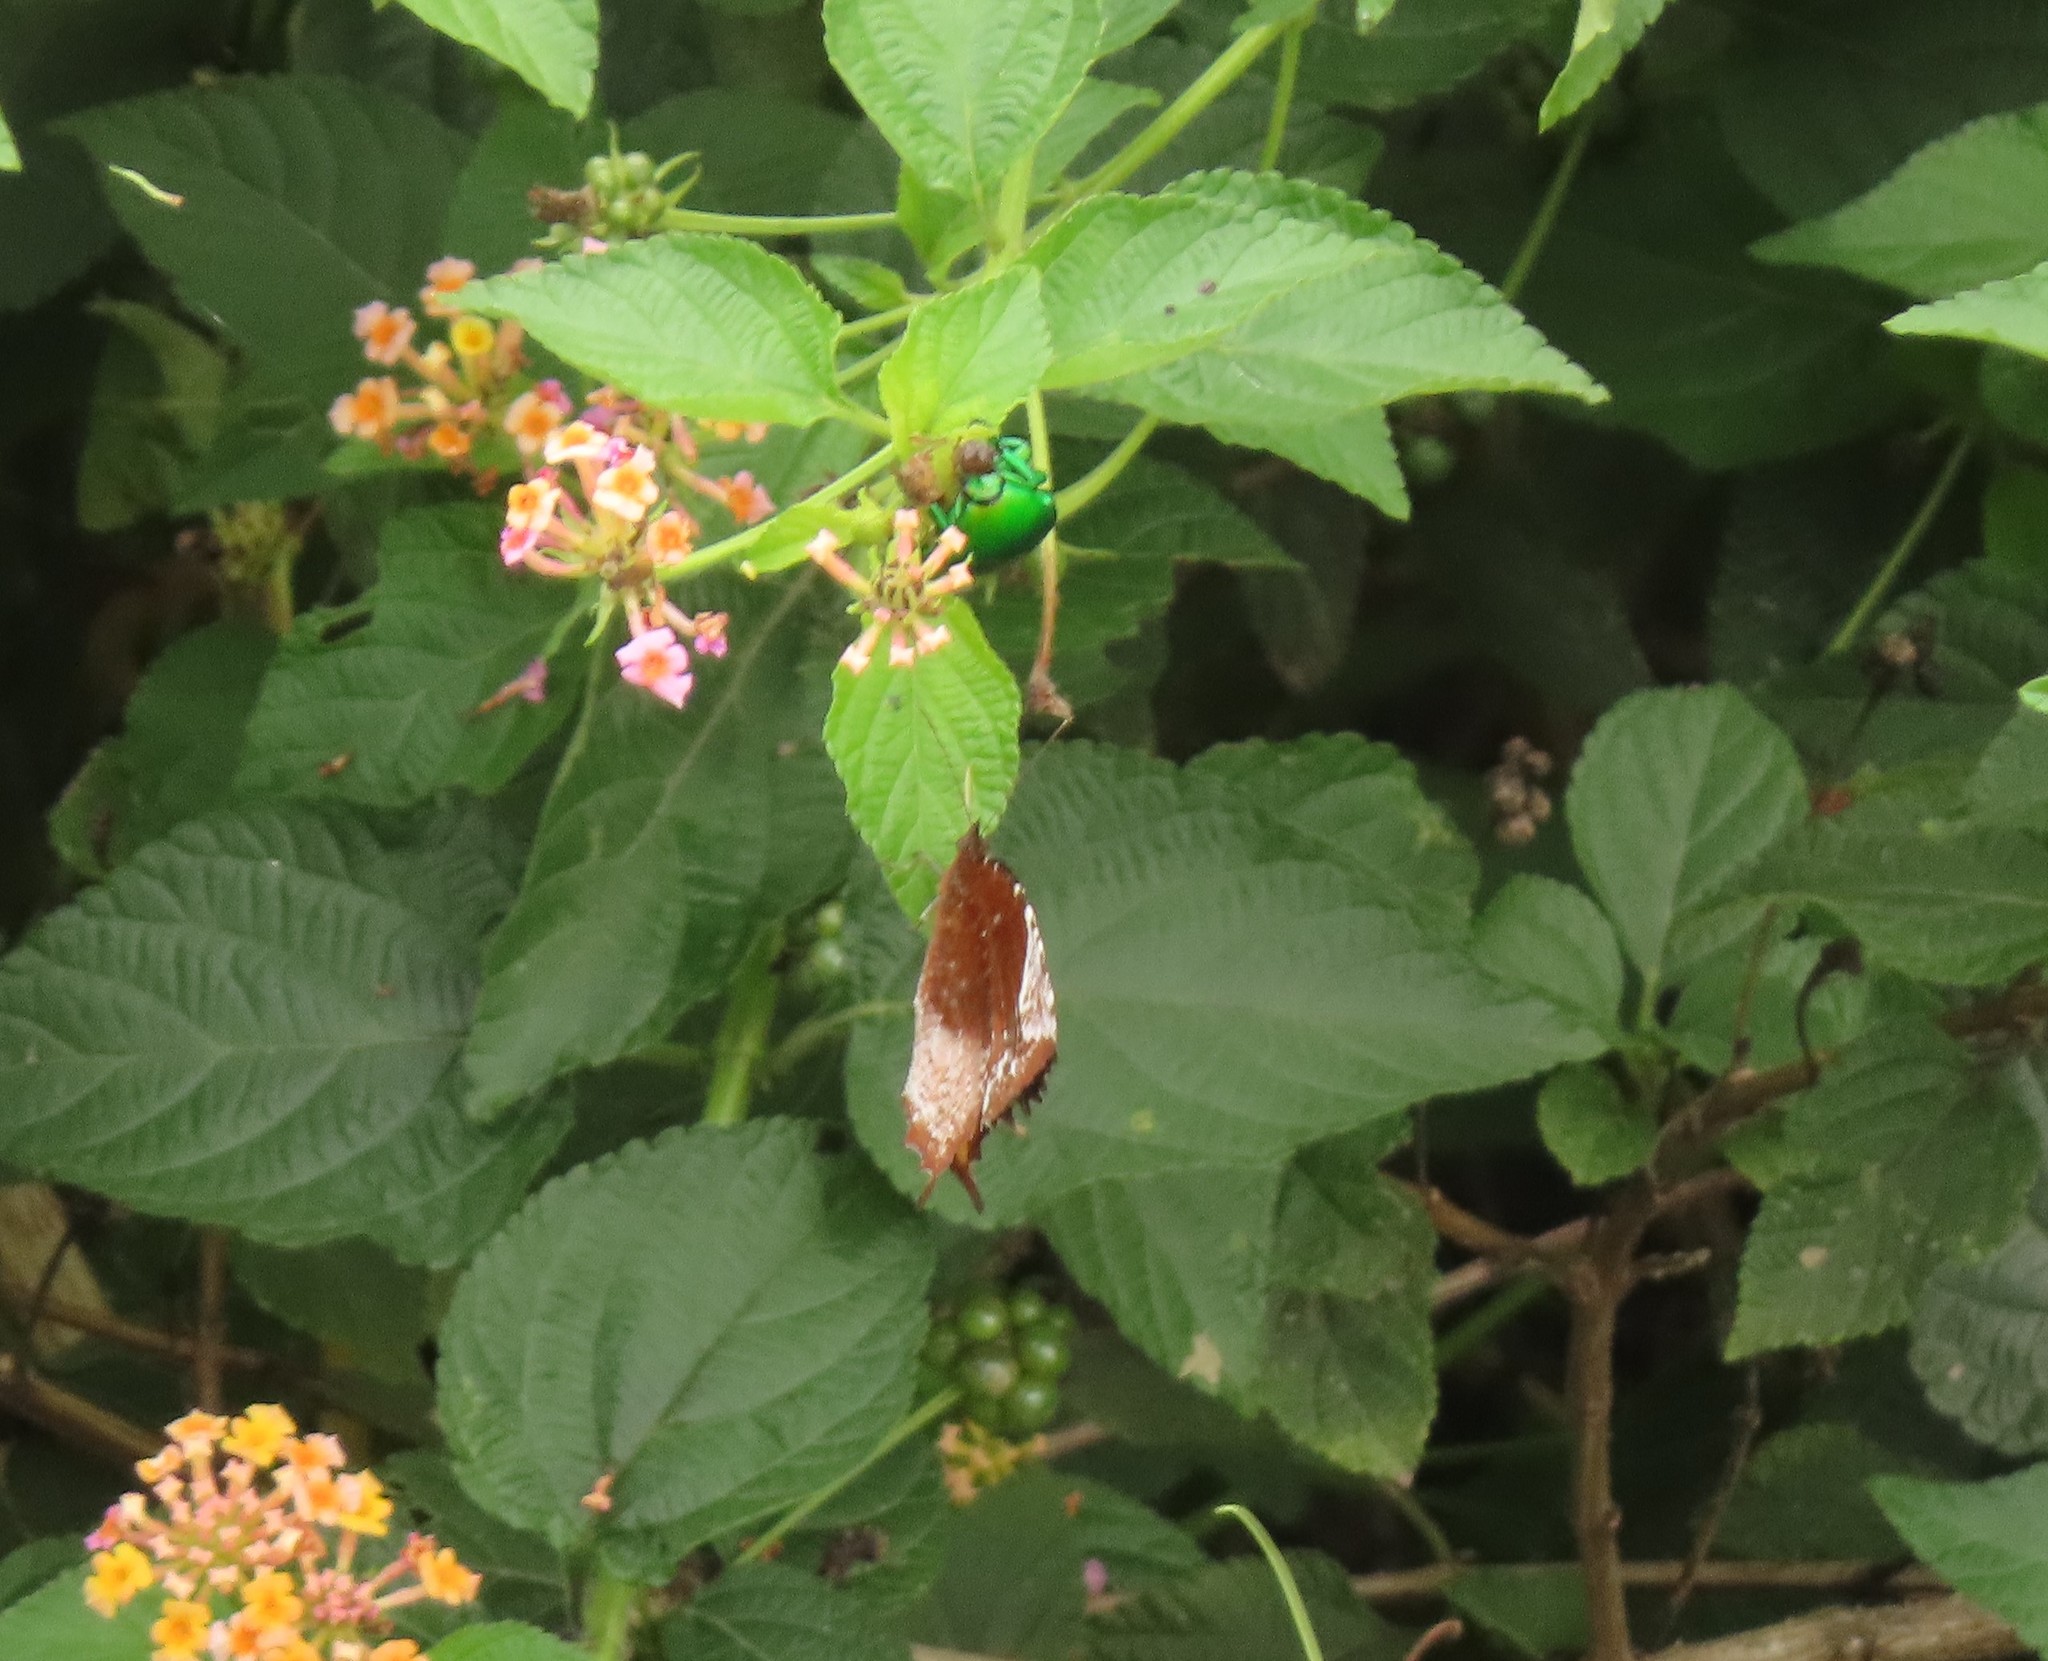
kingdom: Animalia
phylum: Arthropoda
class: Insecta
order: Lepidoptera
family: Nymphalidae
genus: Elymnias
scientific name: Elymnias caudata
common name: Tailed palmfly
